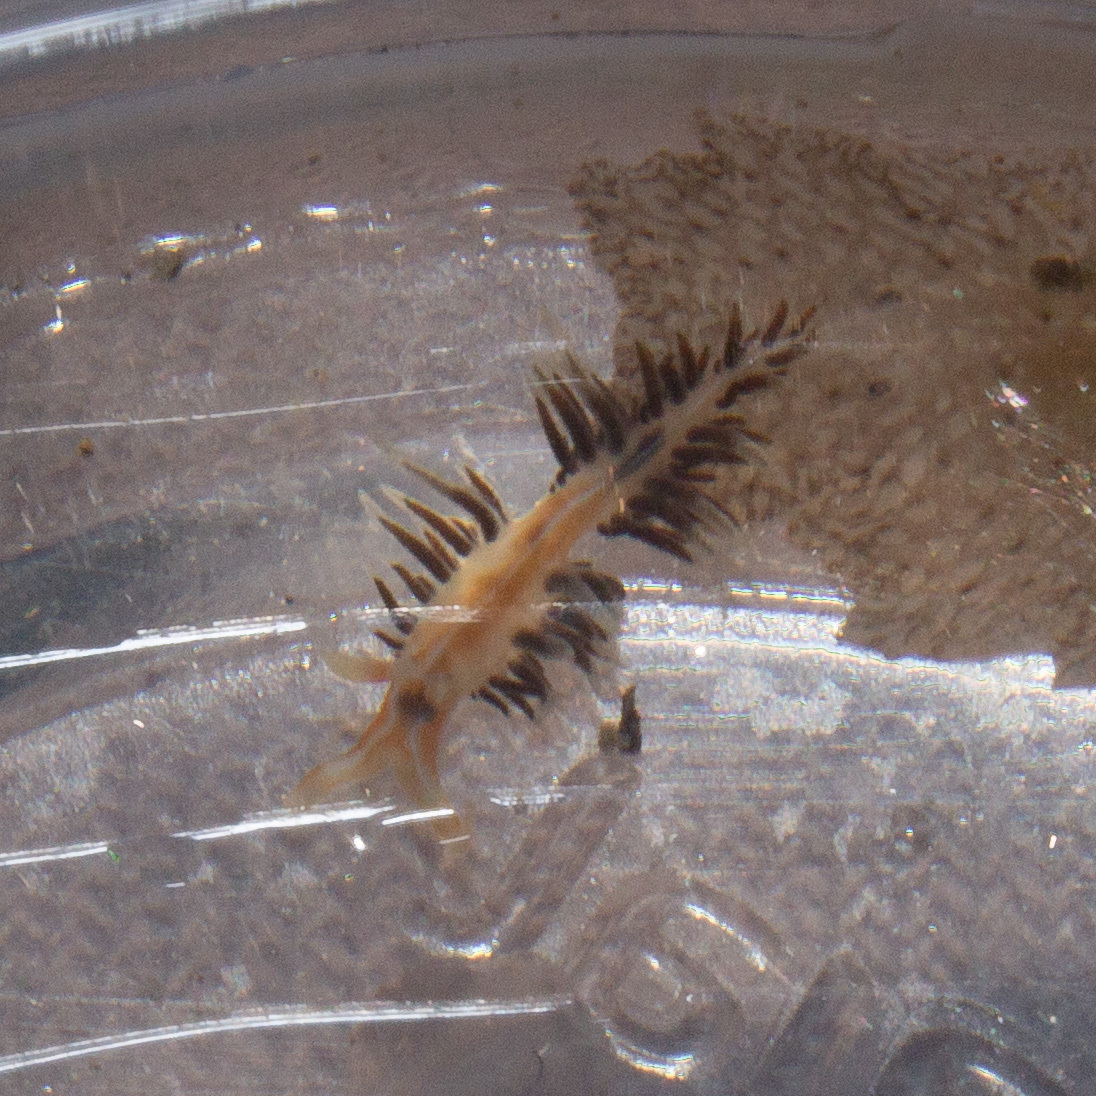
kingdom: Animalia
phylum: Mollusca
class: Gastropoda
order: Nudibranchia
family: Facelinidae
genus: Phidiana
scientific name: Phidiana lynceus
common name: Lynx nudibranch
